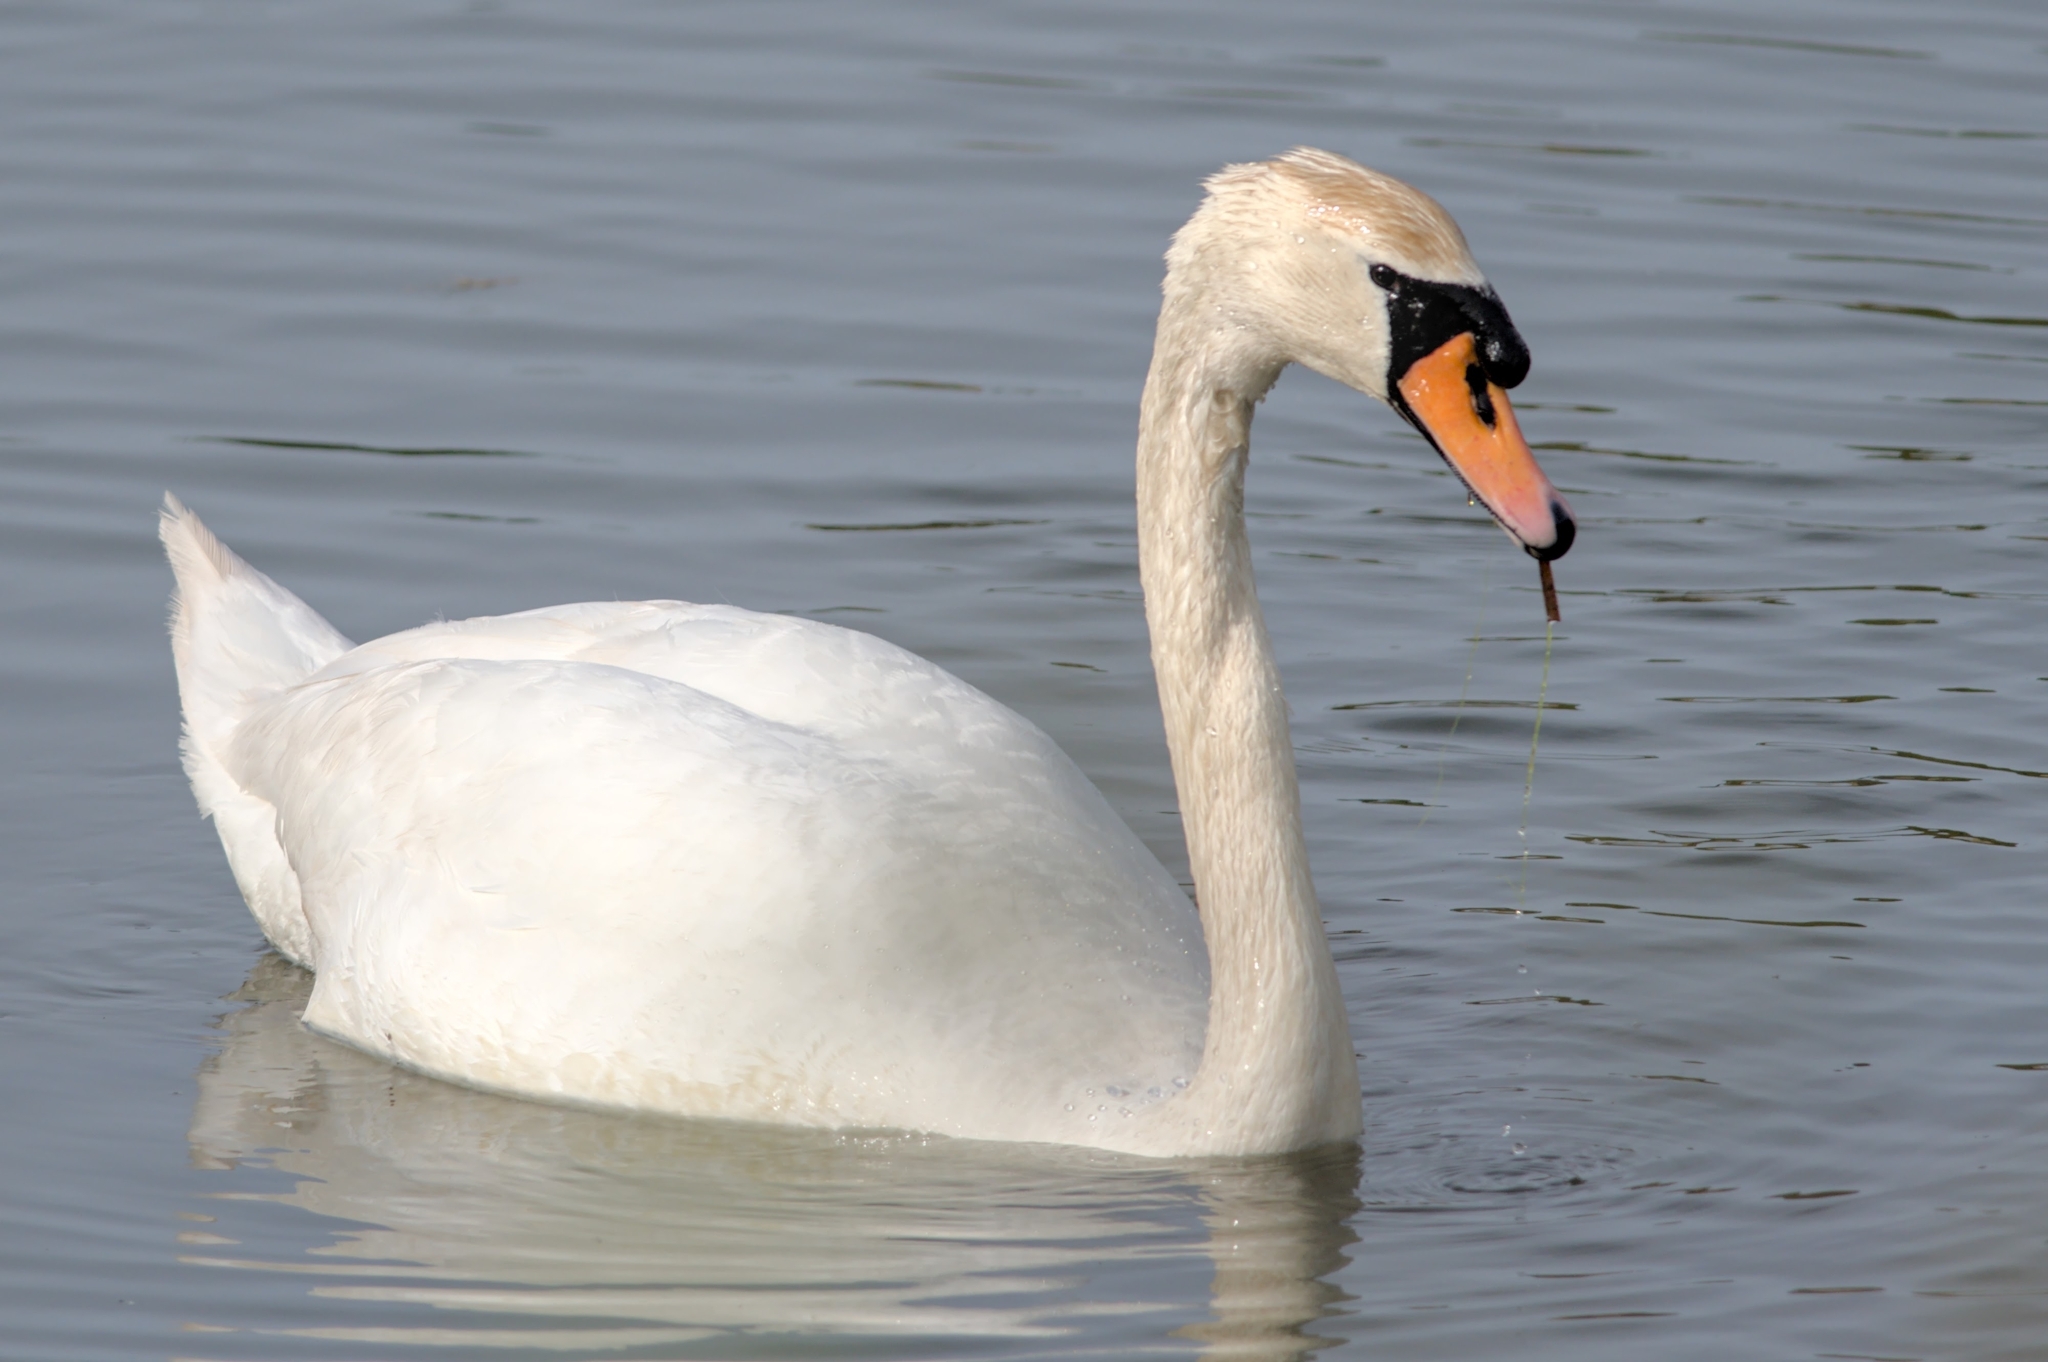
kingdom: Animalia
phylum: Chordata
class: Aves
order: Anseriformes
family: Anatidae
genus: Cygnus
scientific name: Cygnus olor
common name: Mute swan
